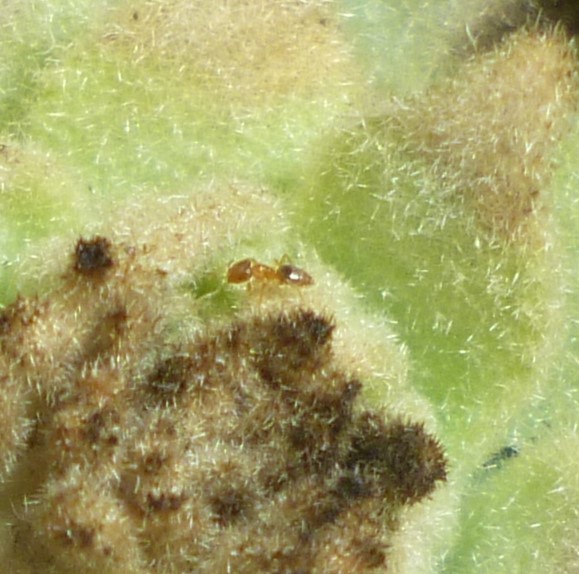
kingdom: Animalia
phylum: Arthropoda
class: Insecta
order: Hymenoptera
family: Formicidae
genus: Brachymyrmex
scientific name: Brachymyrmex depilis
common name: Hairless rover ant
